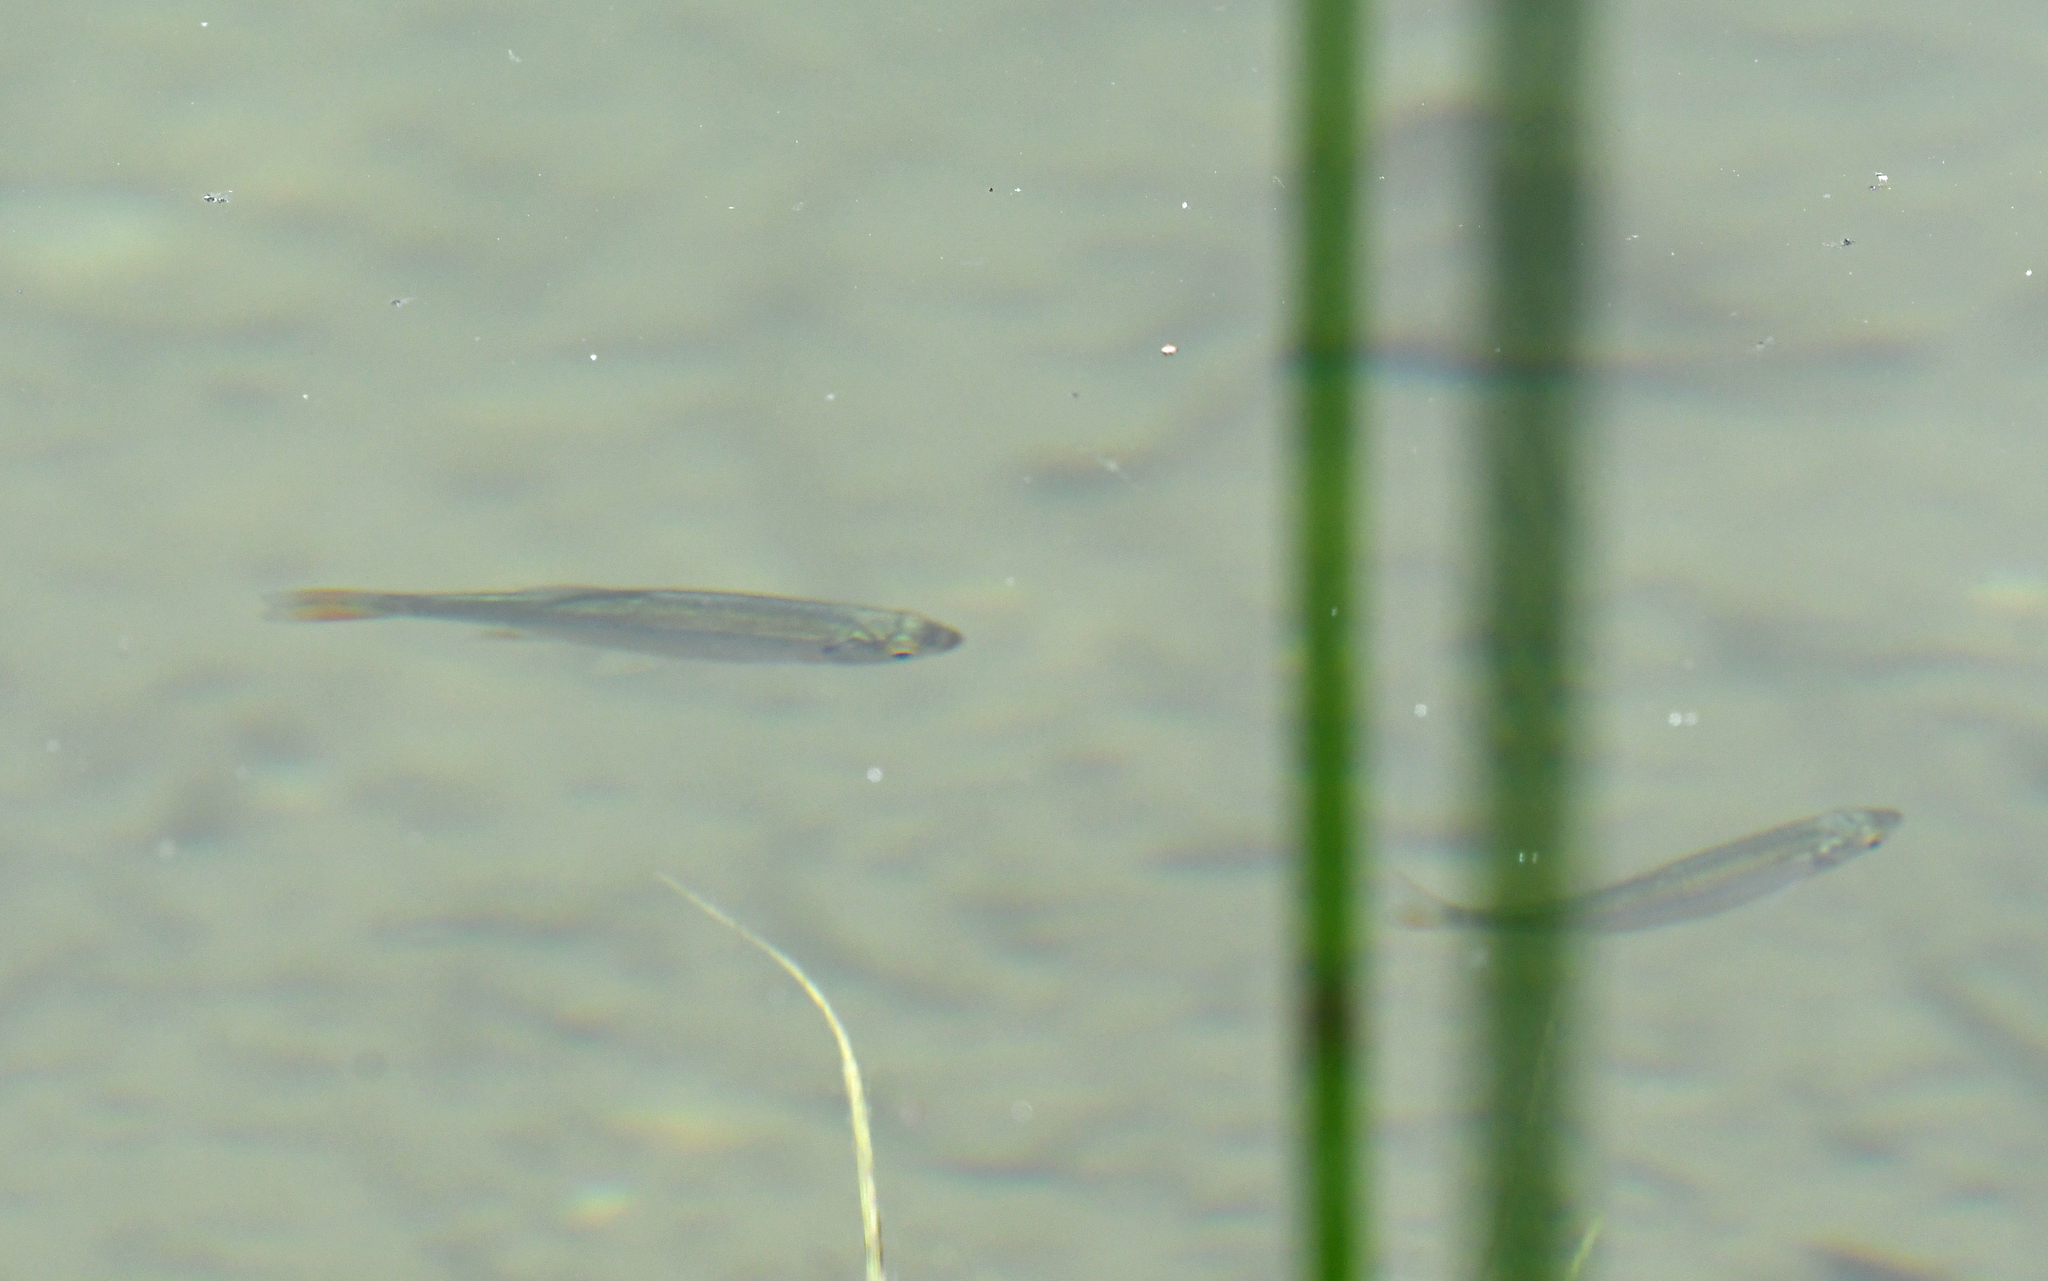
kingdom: Animalia
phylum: Chordata
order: Cypriniformes
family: Cyprinidae
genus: Scardinius
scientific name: Scardinius erythrophthalmus
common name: Rudd
